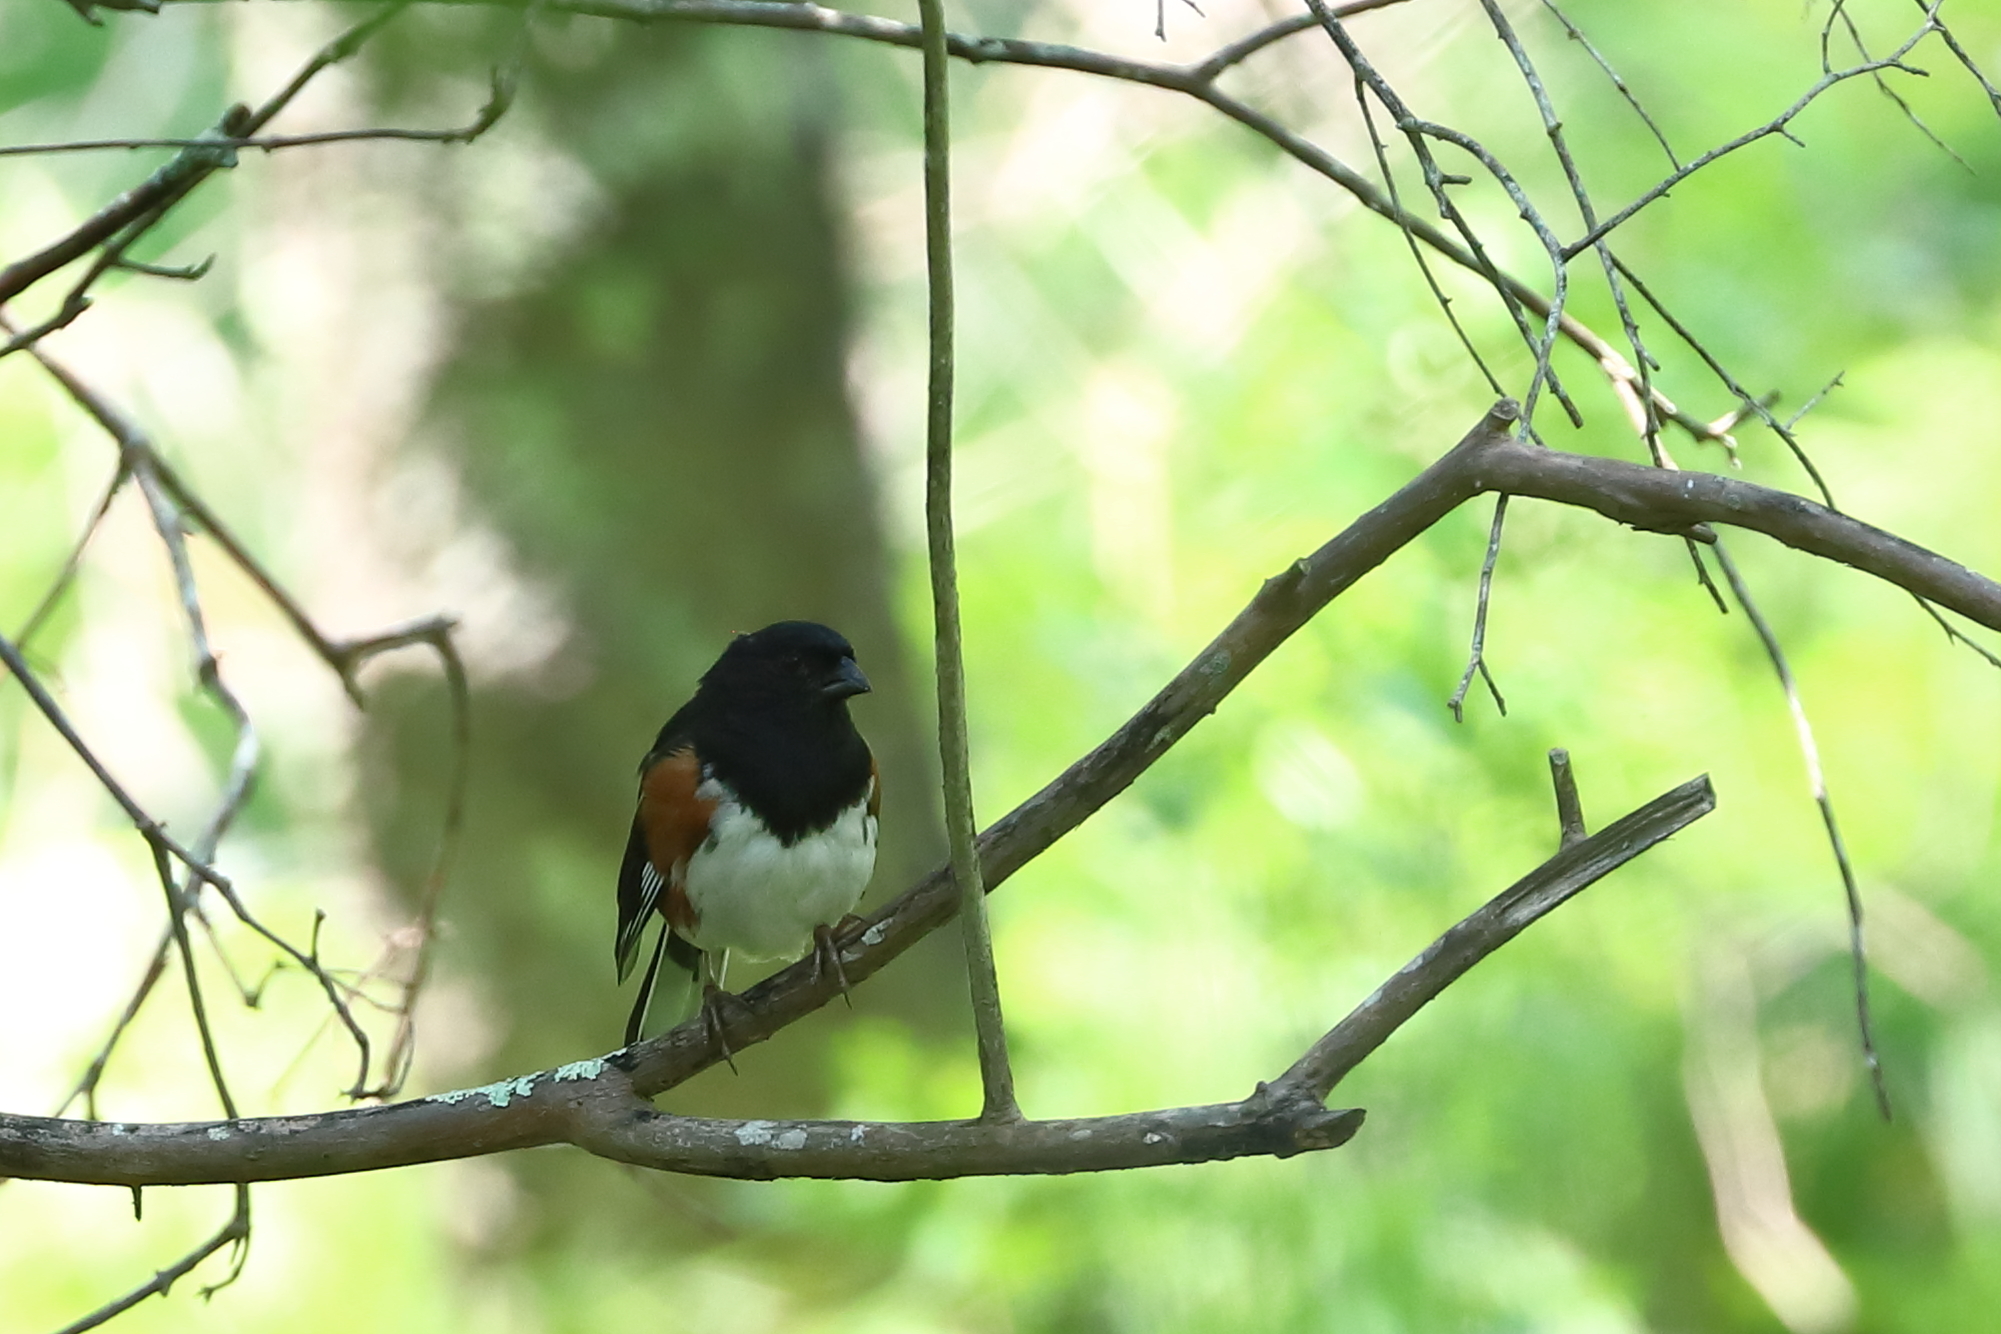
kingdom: Animalia
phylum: Chordata
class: Aves
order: Passeriformes
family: Passerellidae
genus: Pipilo
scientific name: Pipilo erythrophthalmus
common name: Eastern towhee
